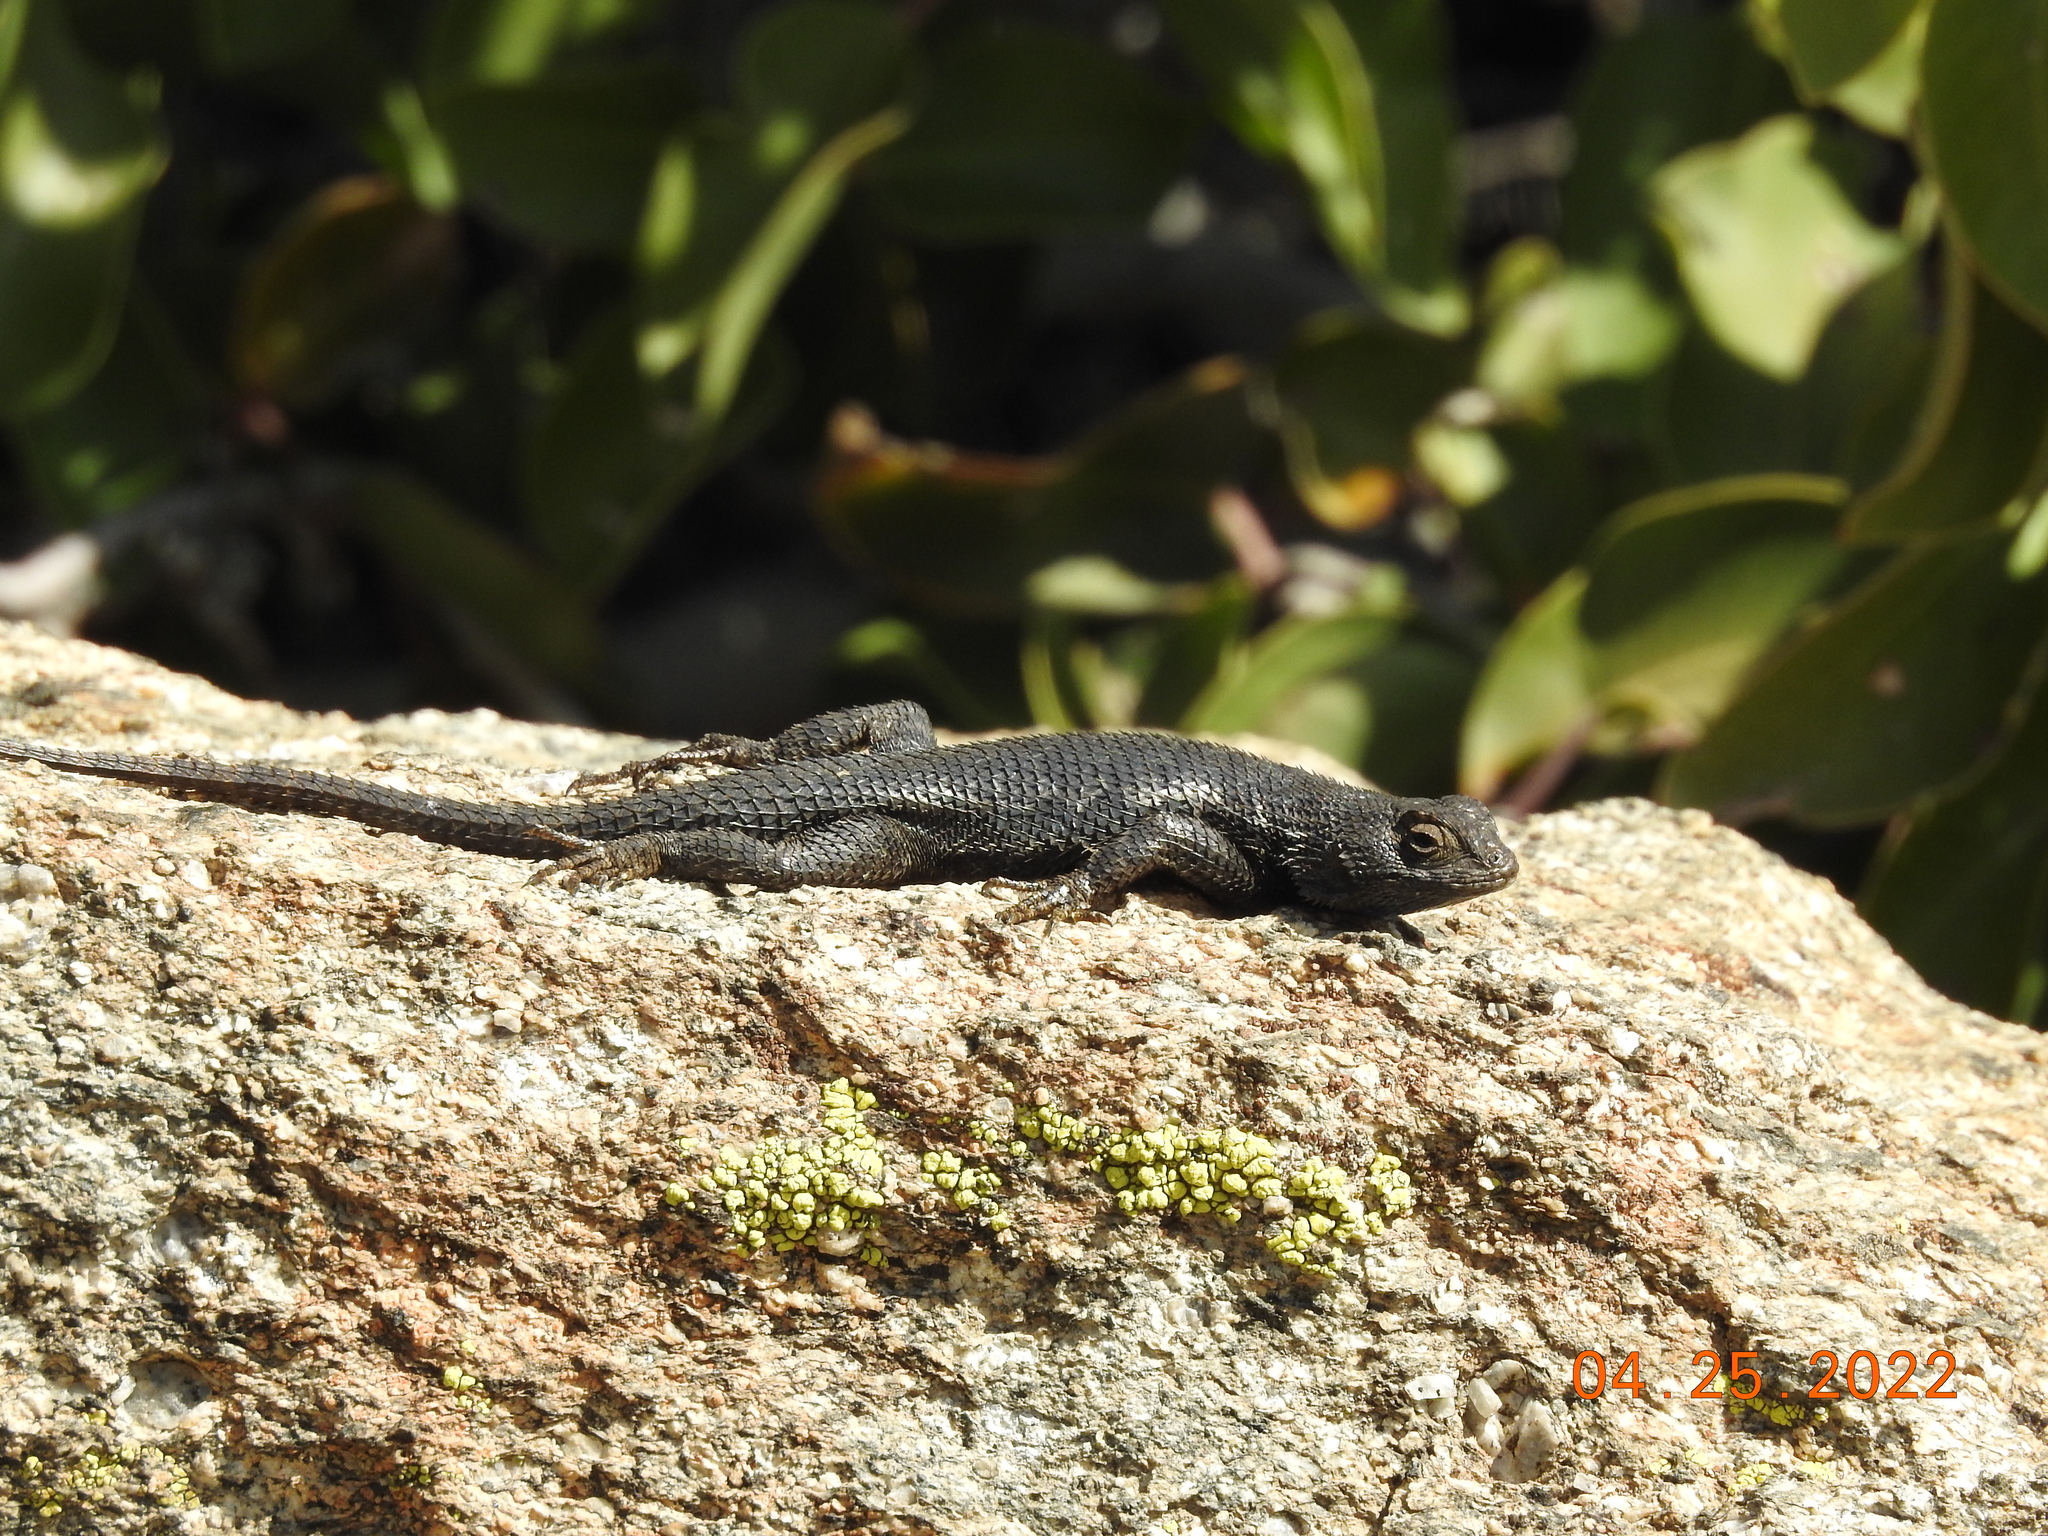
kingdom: Animalia
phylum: Chordata
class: Squamata
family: Phrynosomatidae
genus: Sceloporus
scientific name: Sceloporus occidentalis
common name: Western fence lizard
